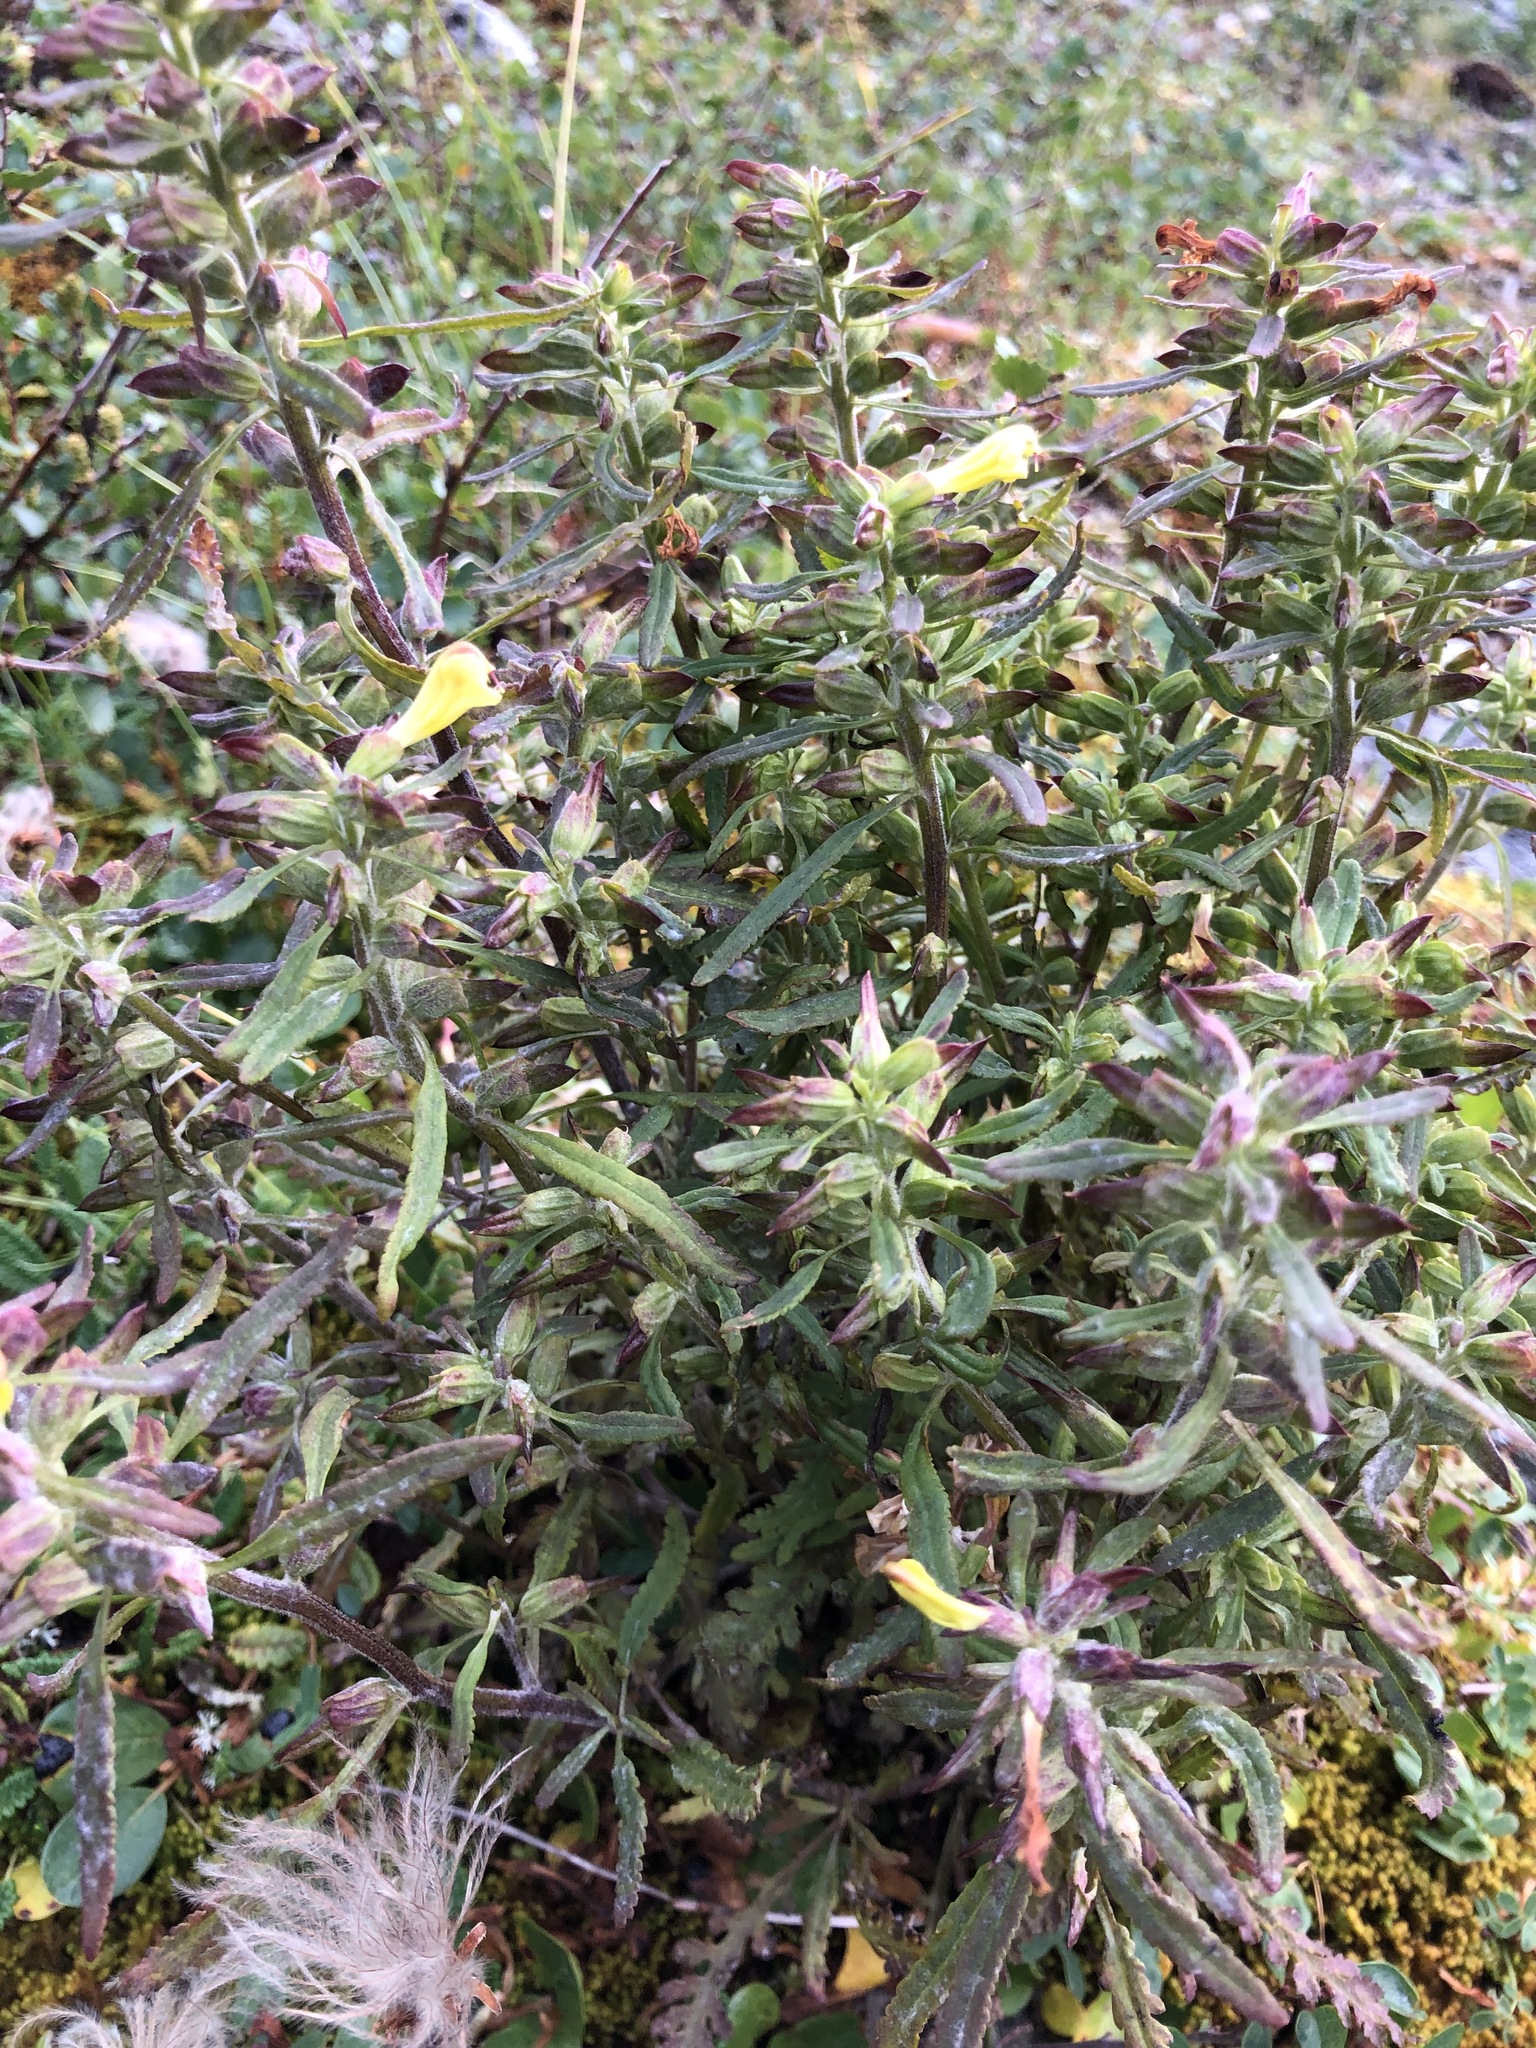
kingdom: Plantae
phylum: Tracheophyta
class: Magnoliopsida
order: Lamiales
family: Orobanchaceae
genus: Pedicularis
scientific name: Pedicularis labradorica
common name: Labrador lousewort
